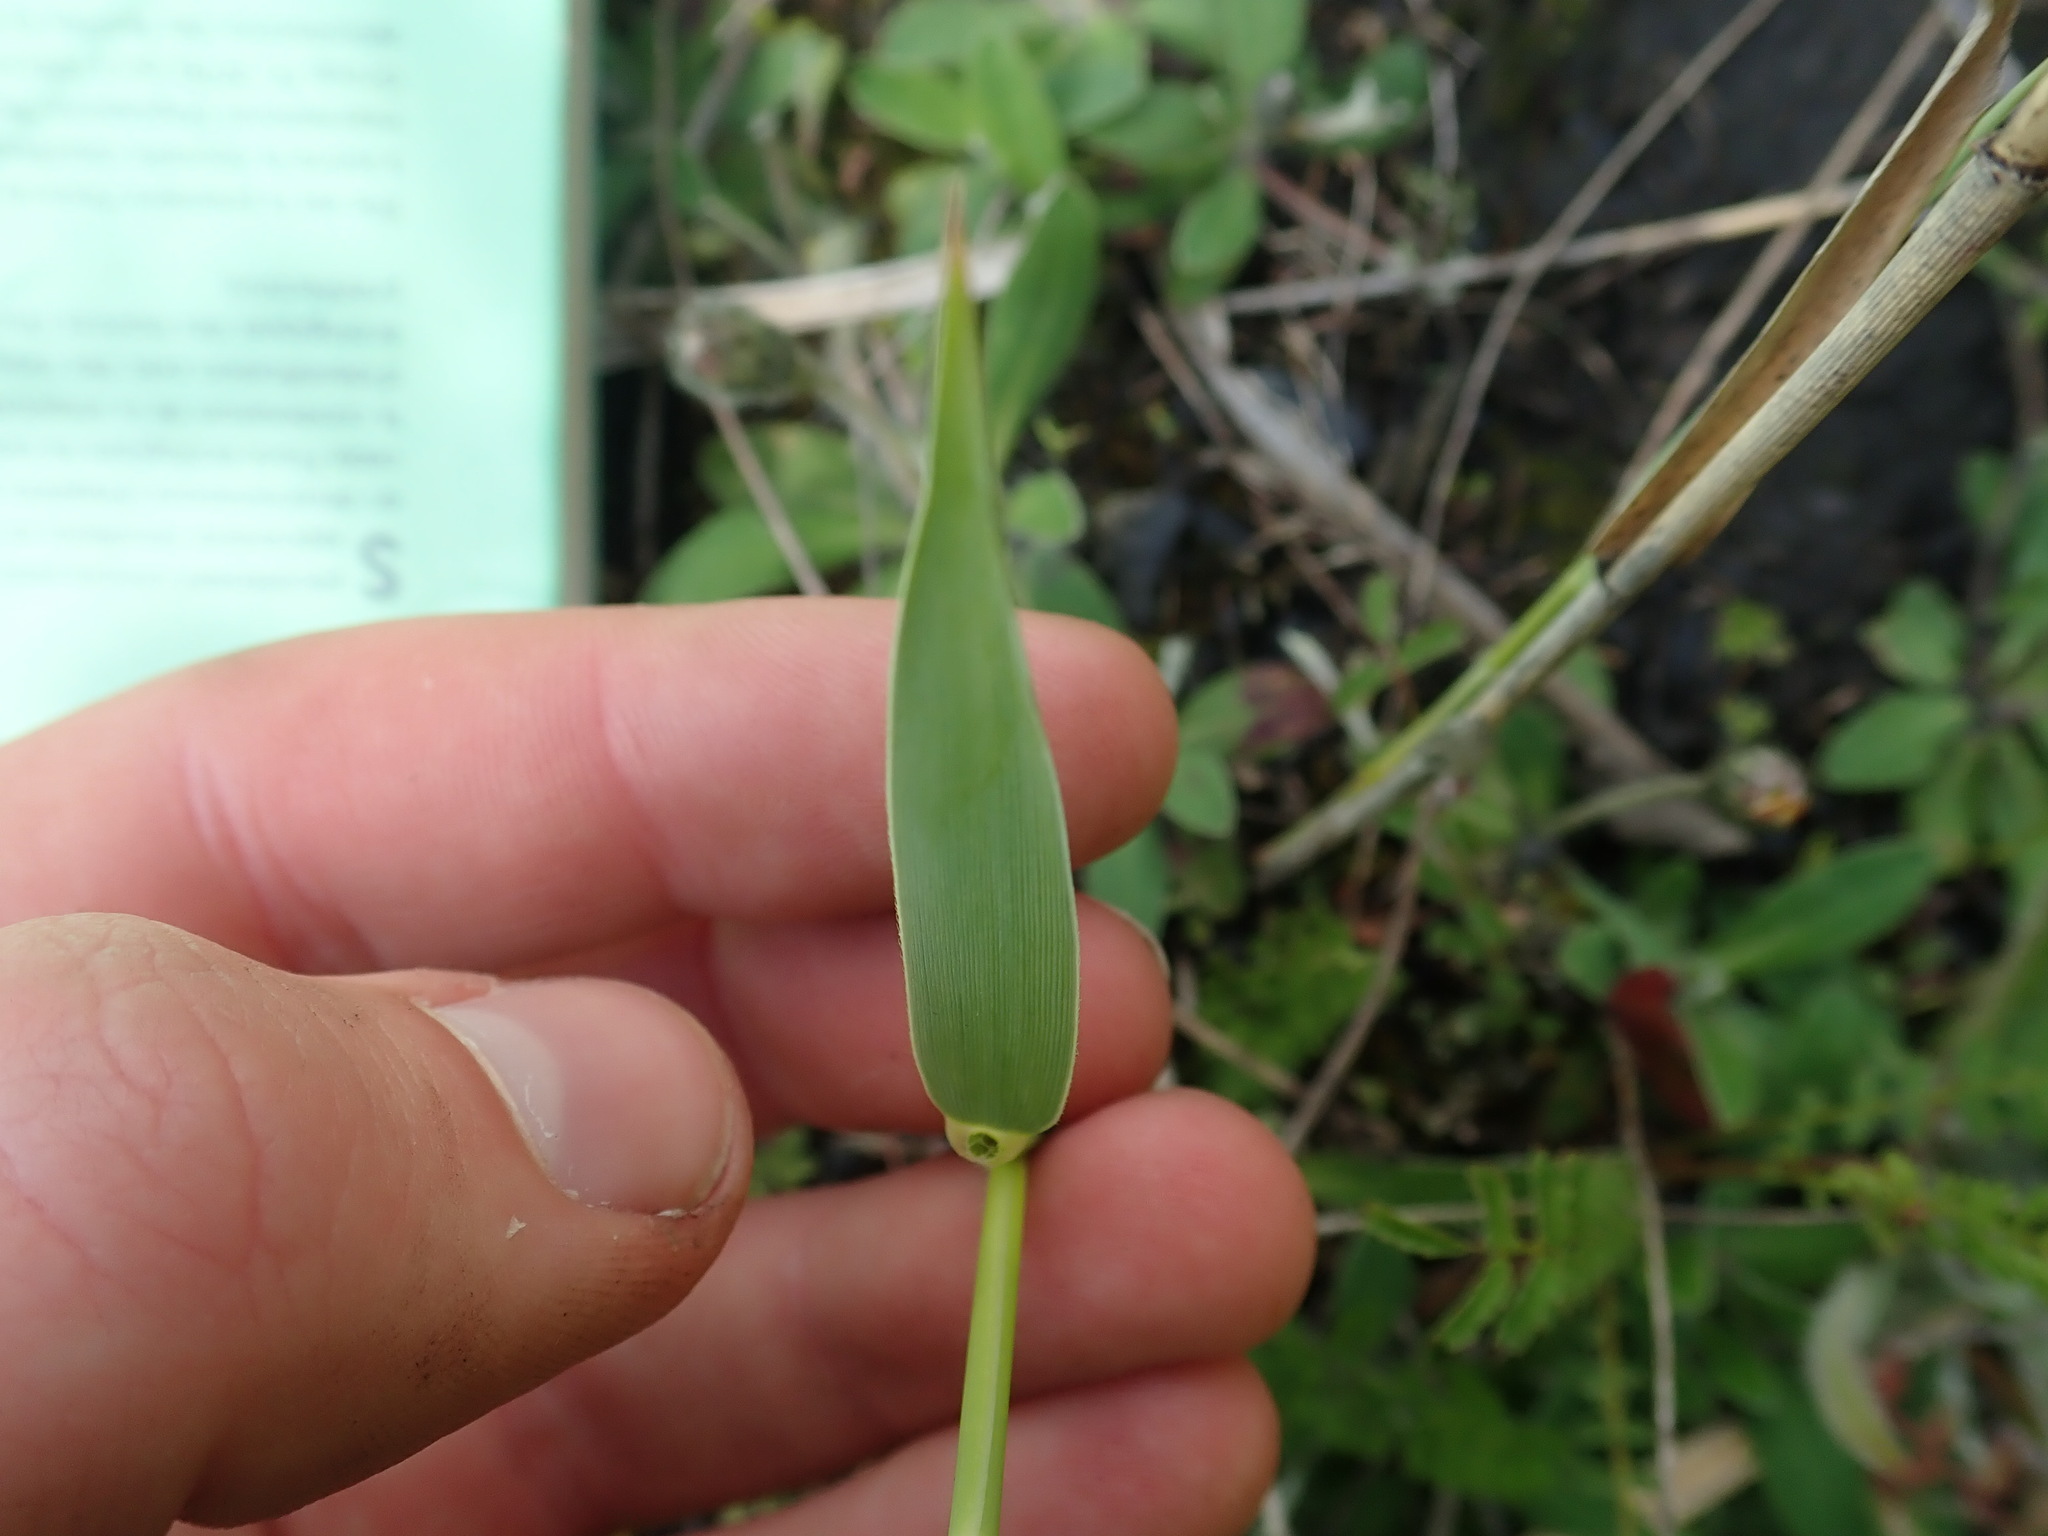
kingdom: Plantae
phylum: Tracheophyta
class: Liliopsida
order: Poales
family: Poaceae
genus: Phragmites
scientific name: Phragmites australis
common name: Common reed
